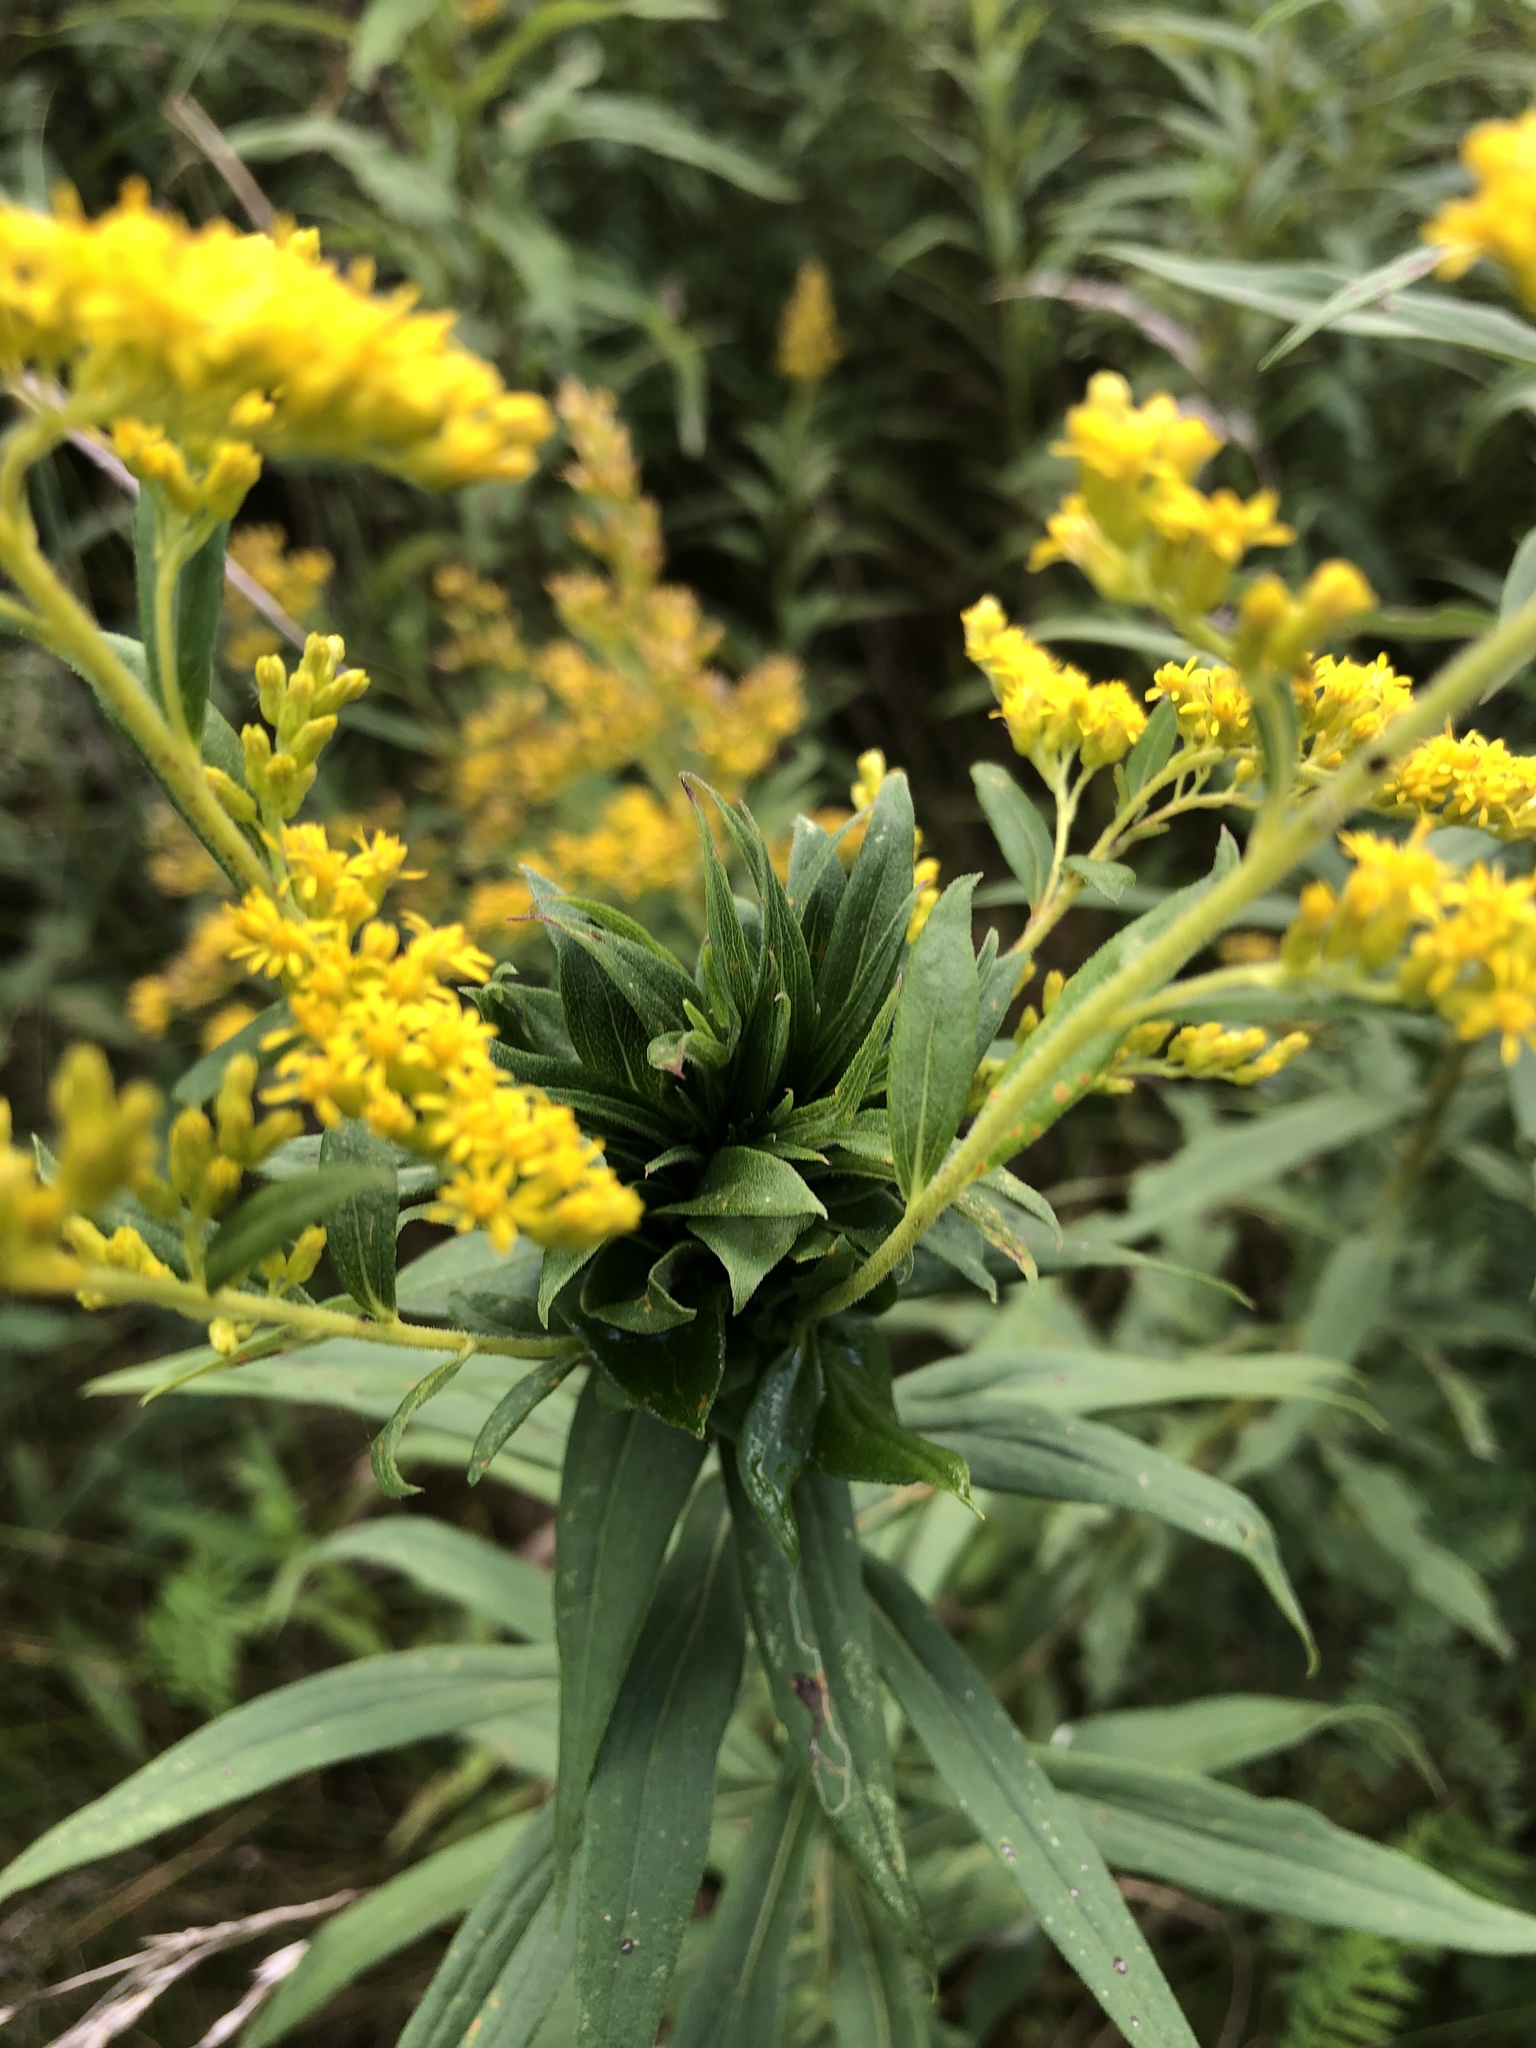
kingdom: Animalia
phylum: Arthropoda
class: Insecta
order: Diptera
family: Cecidomyiidae
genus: Rhopalomyia
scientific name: Rhopalomyia solidaginis
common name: Goldenrod bunch gall midge
